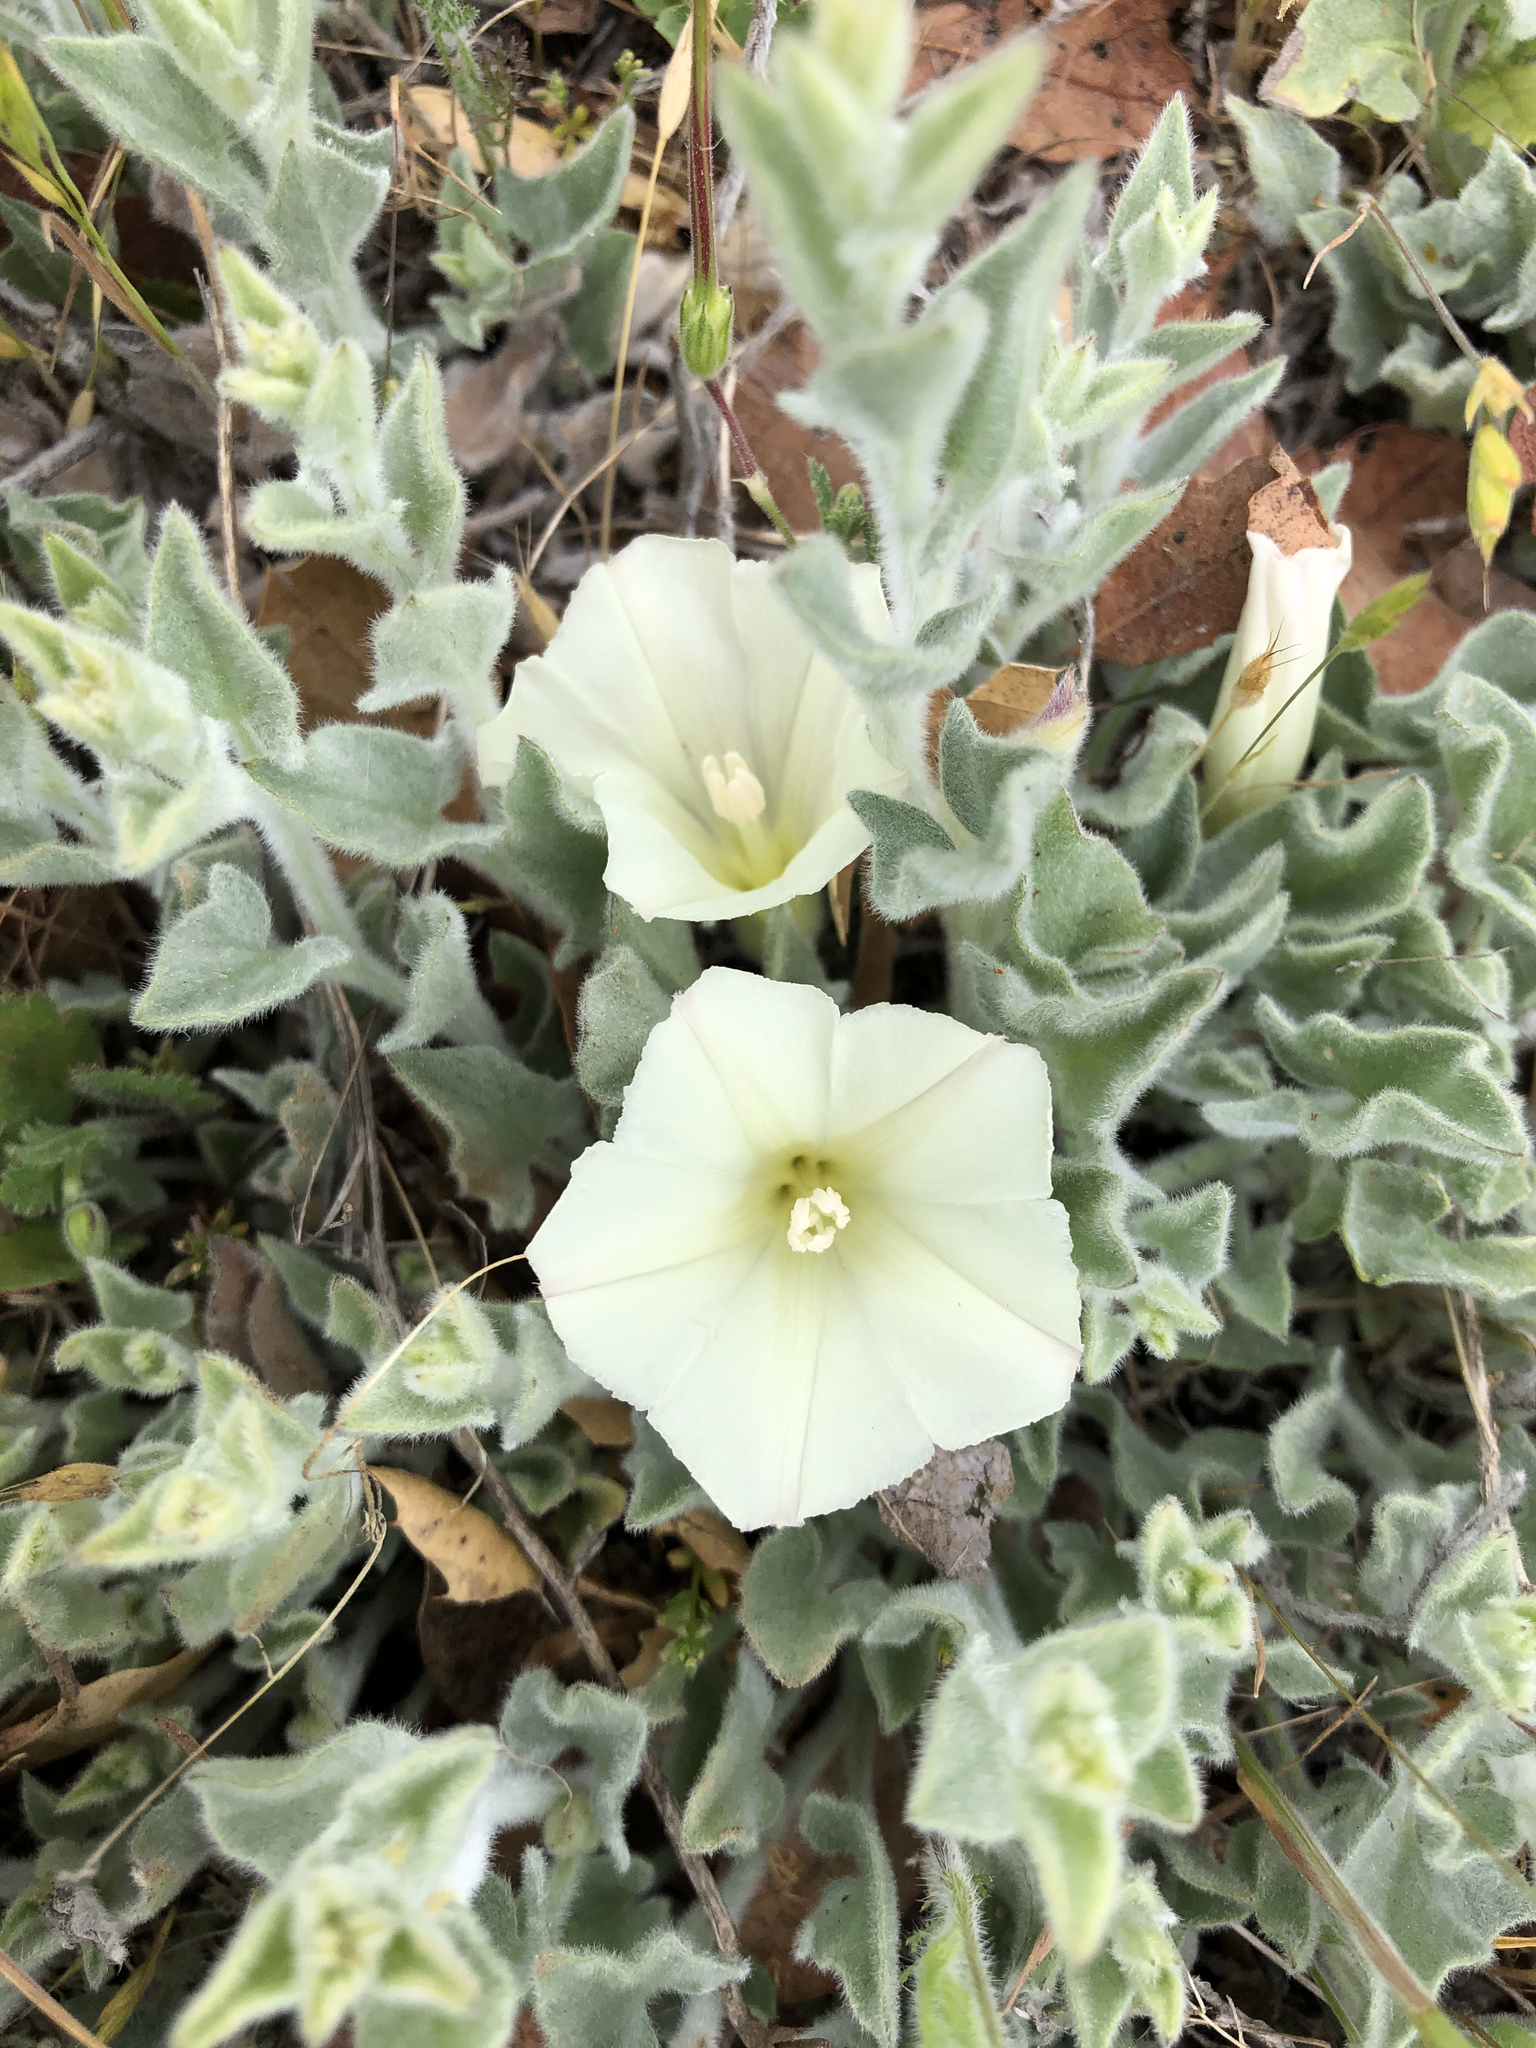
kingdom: Plantae
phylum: Tracheophyta
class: Magnoliopsida
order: Solanales
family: Convolvulaceae
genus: Calystegia
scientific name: Calystegia malacophylla
